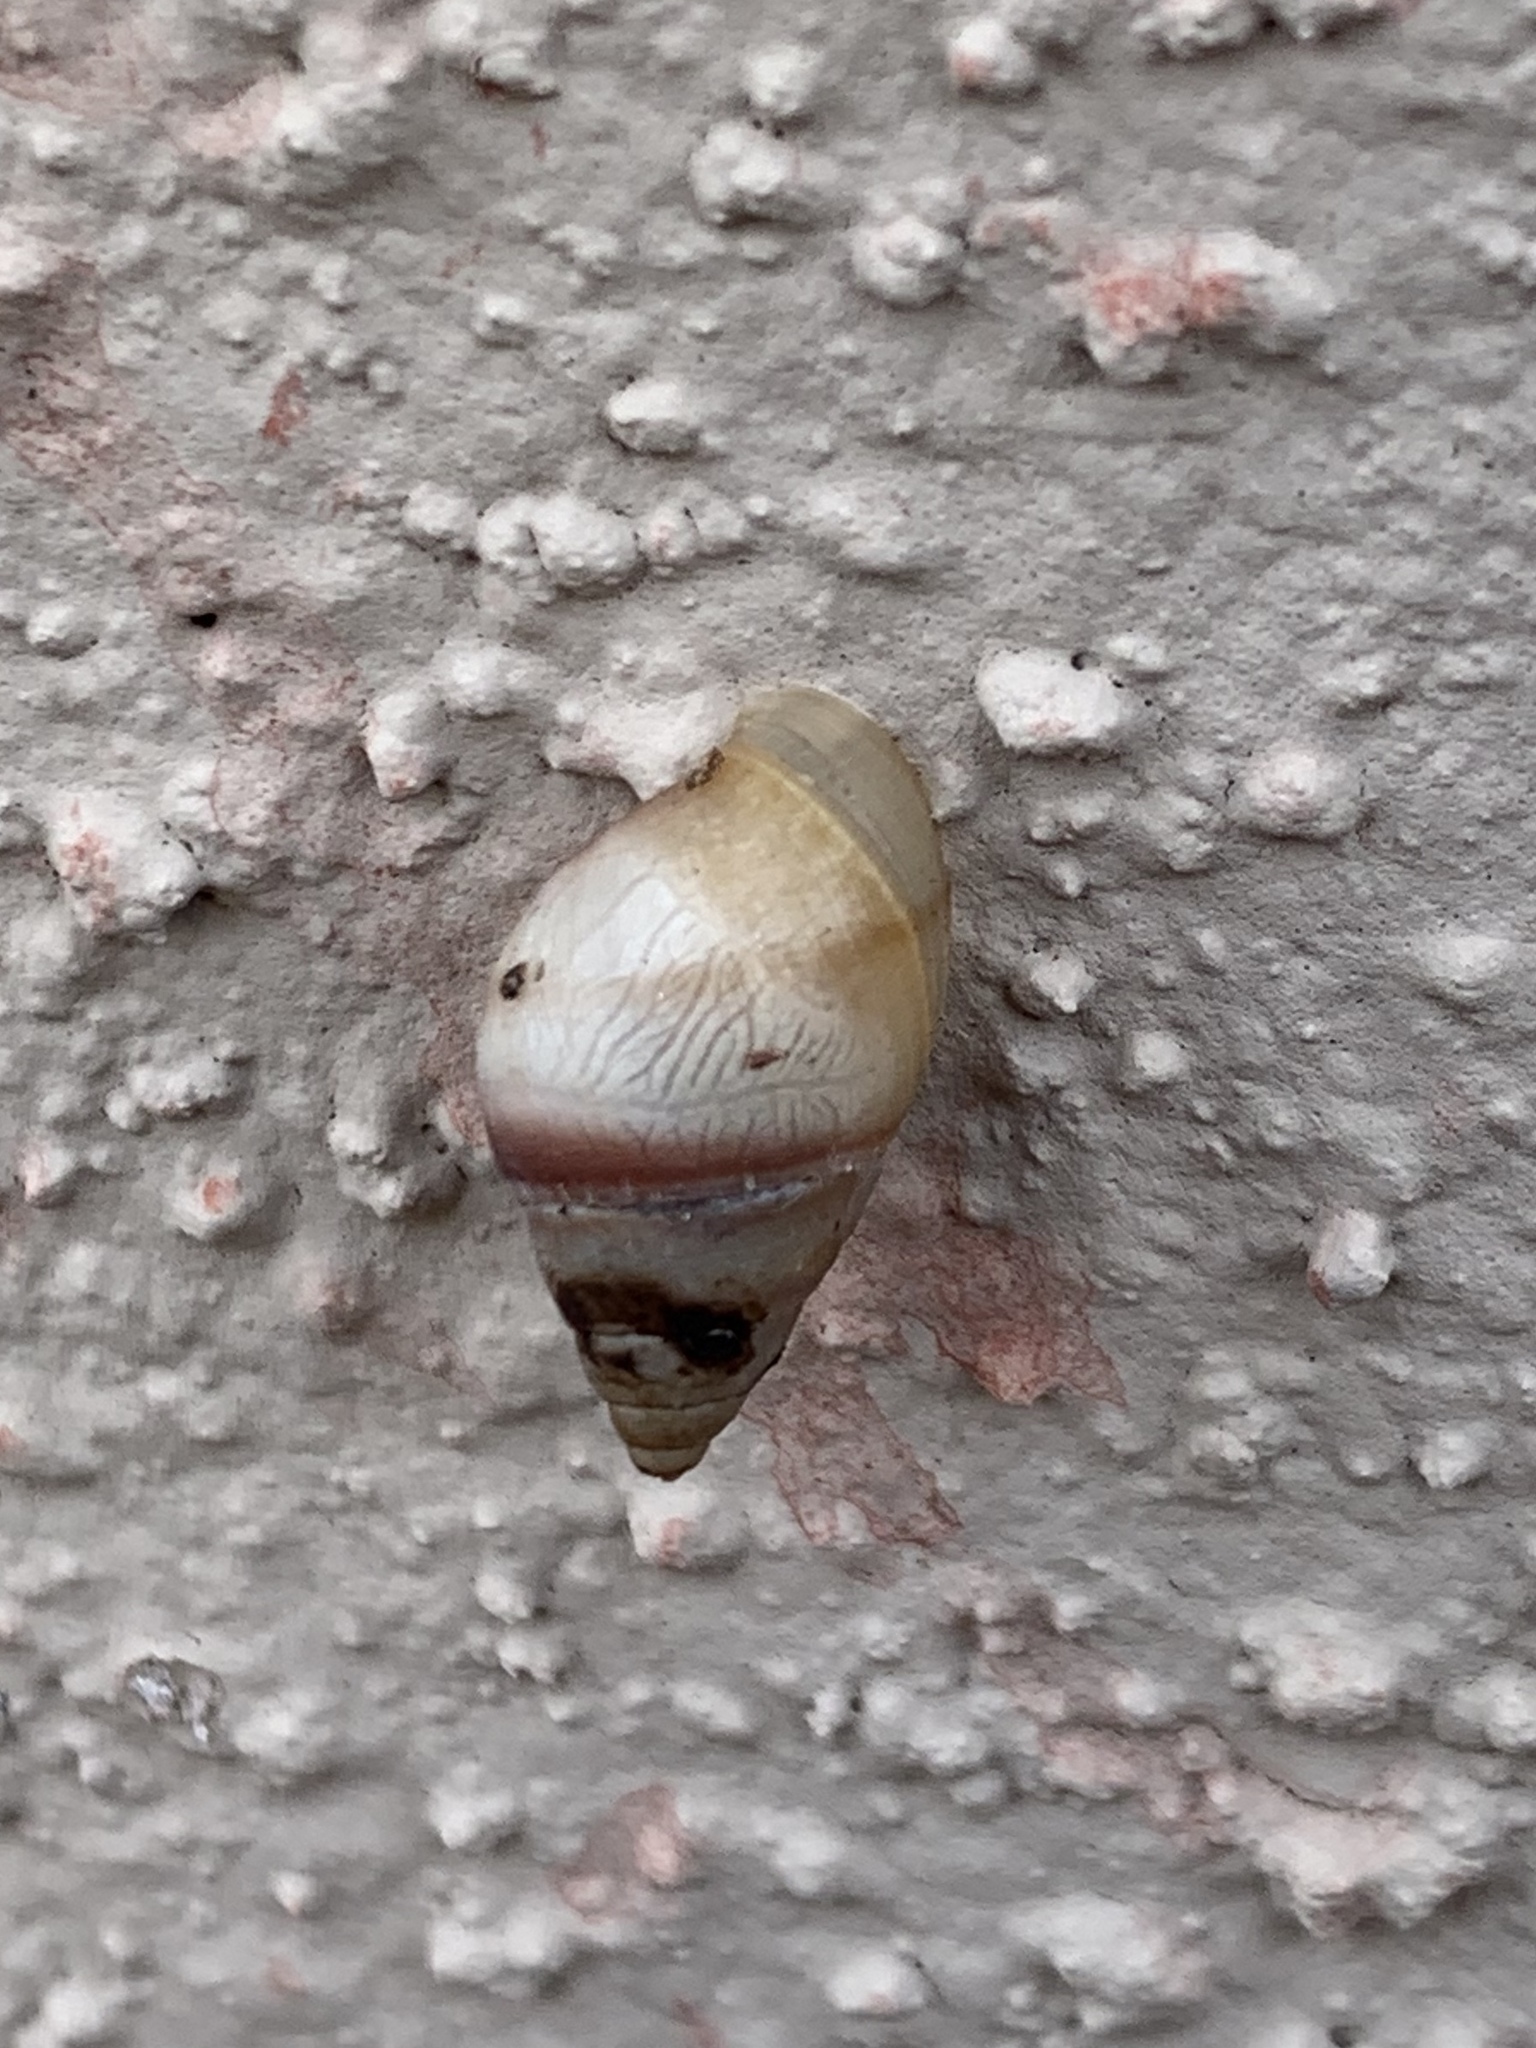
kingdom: Animalia
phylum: Mollusca
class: Gastropoda
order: Stylommatophora
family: Bulimulidae
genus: Bulimulus
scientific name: Bulimulus guadalupensis
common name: West indian bulimulus
